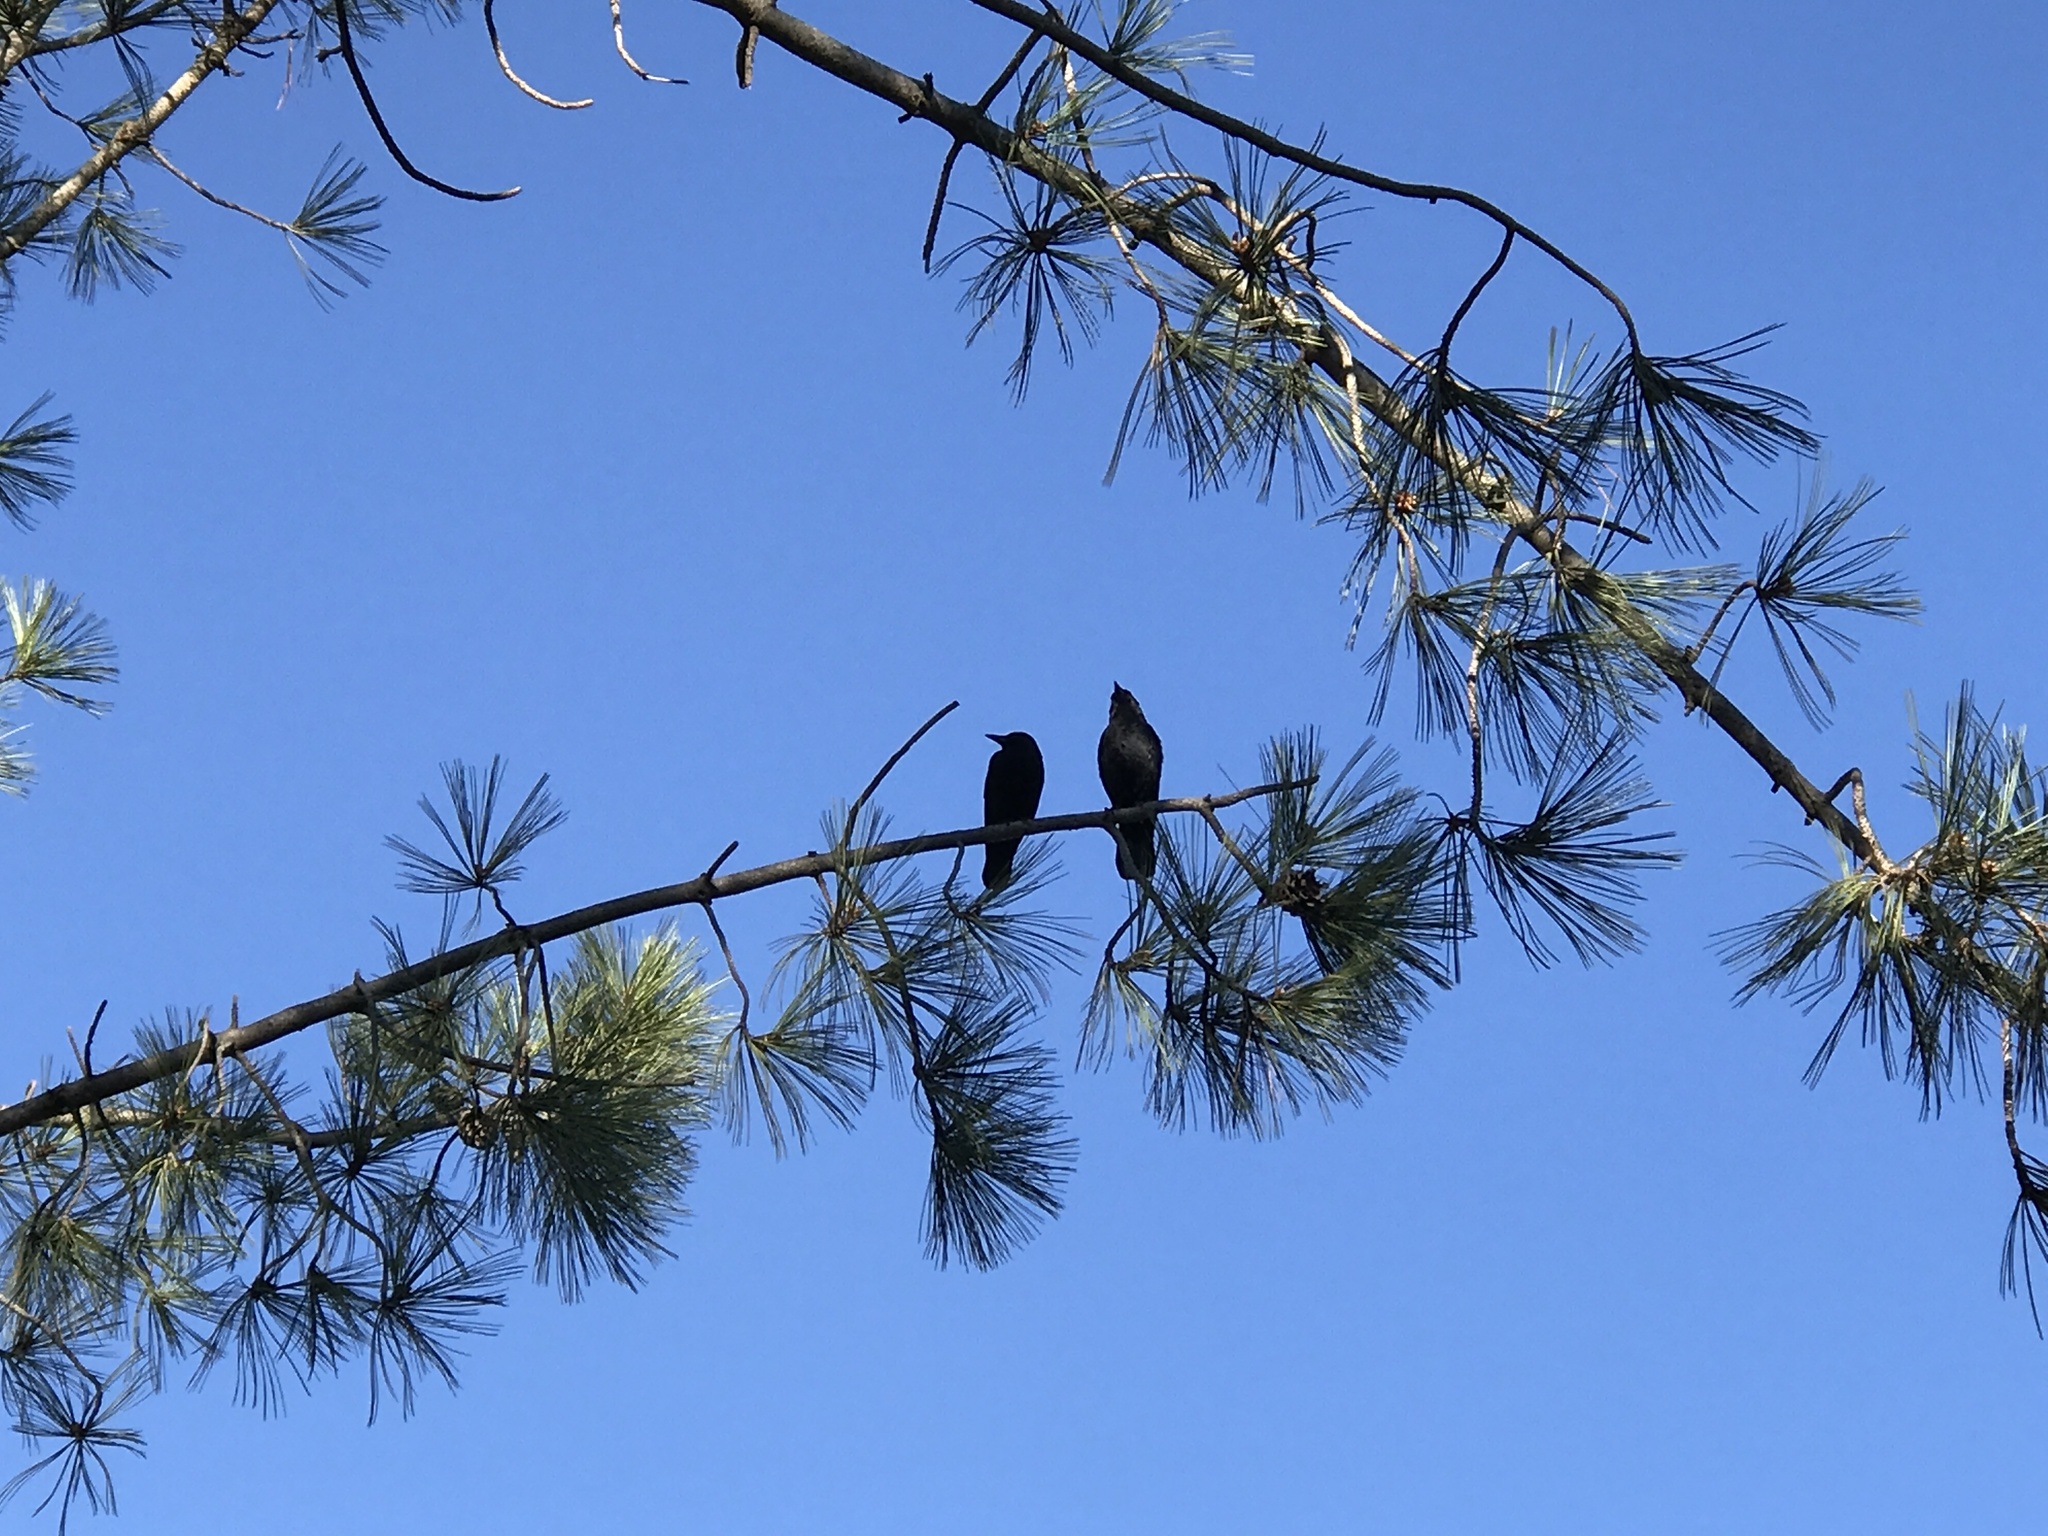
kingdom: Animalia
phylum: Chordata
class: Aves
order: Passeriformes
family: Corvidae
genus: Corvus
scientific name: Corvus brachyrhynchos
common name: American crow
